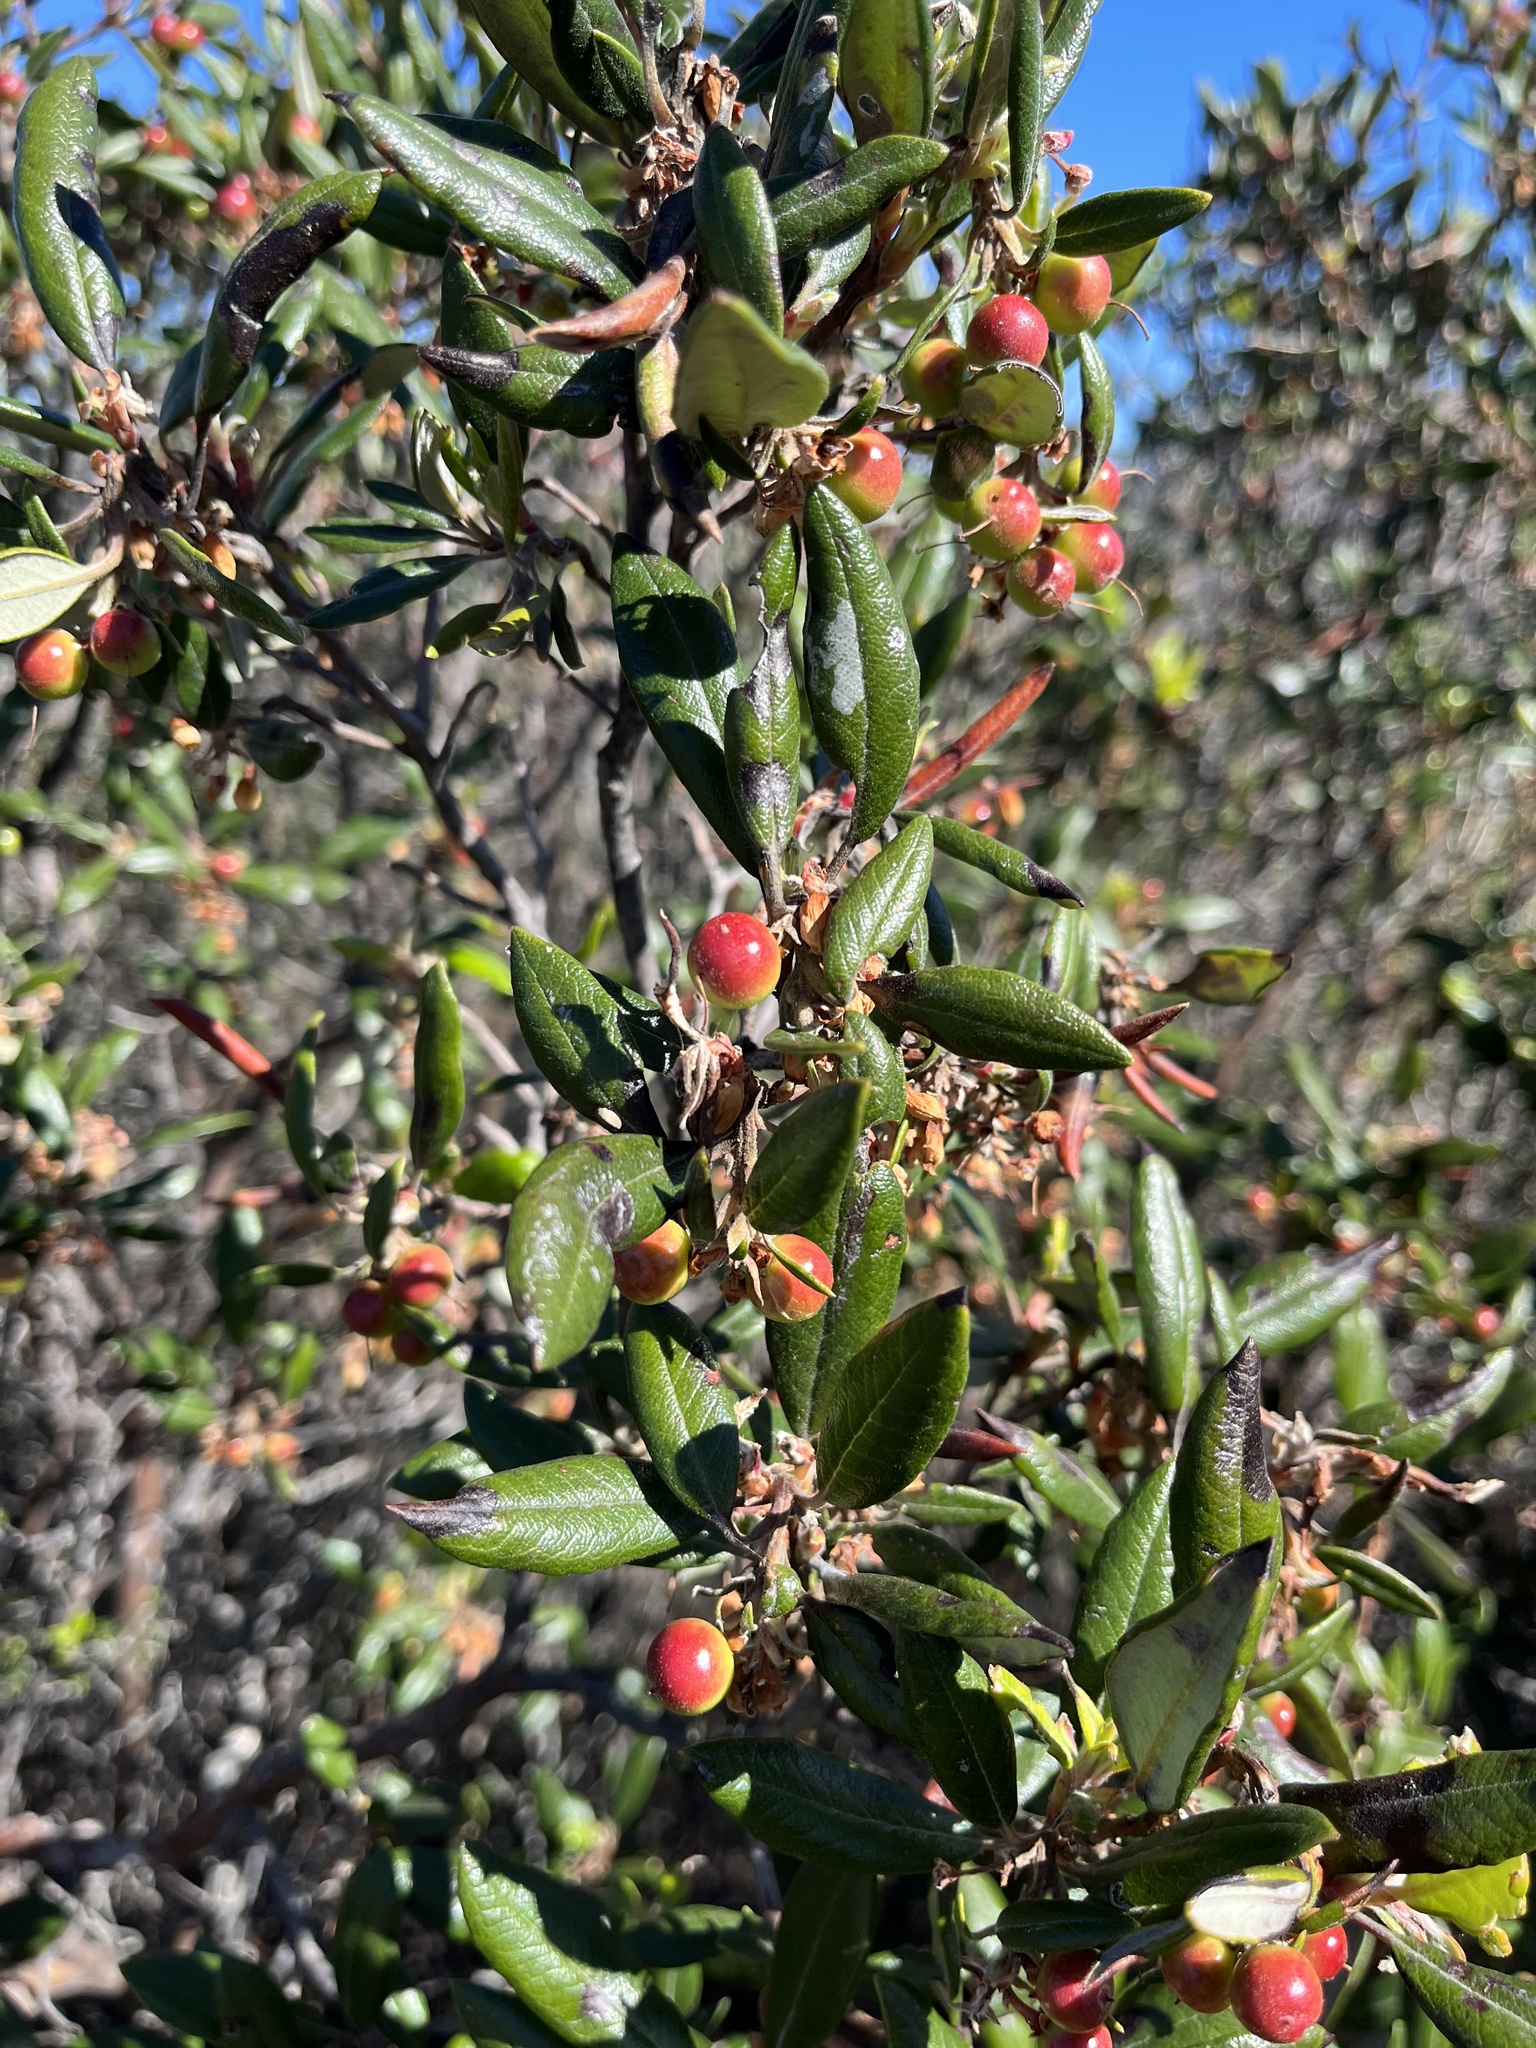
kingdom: Plantae
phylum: Tracheophyta
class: Magnoliopsida
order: Ericales
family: Ericaceae
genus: Arctostaphylos
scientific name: Arctostaphylos bicolor
